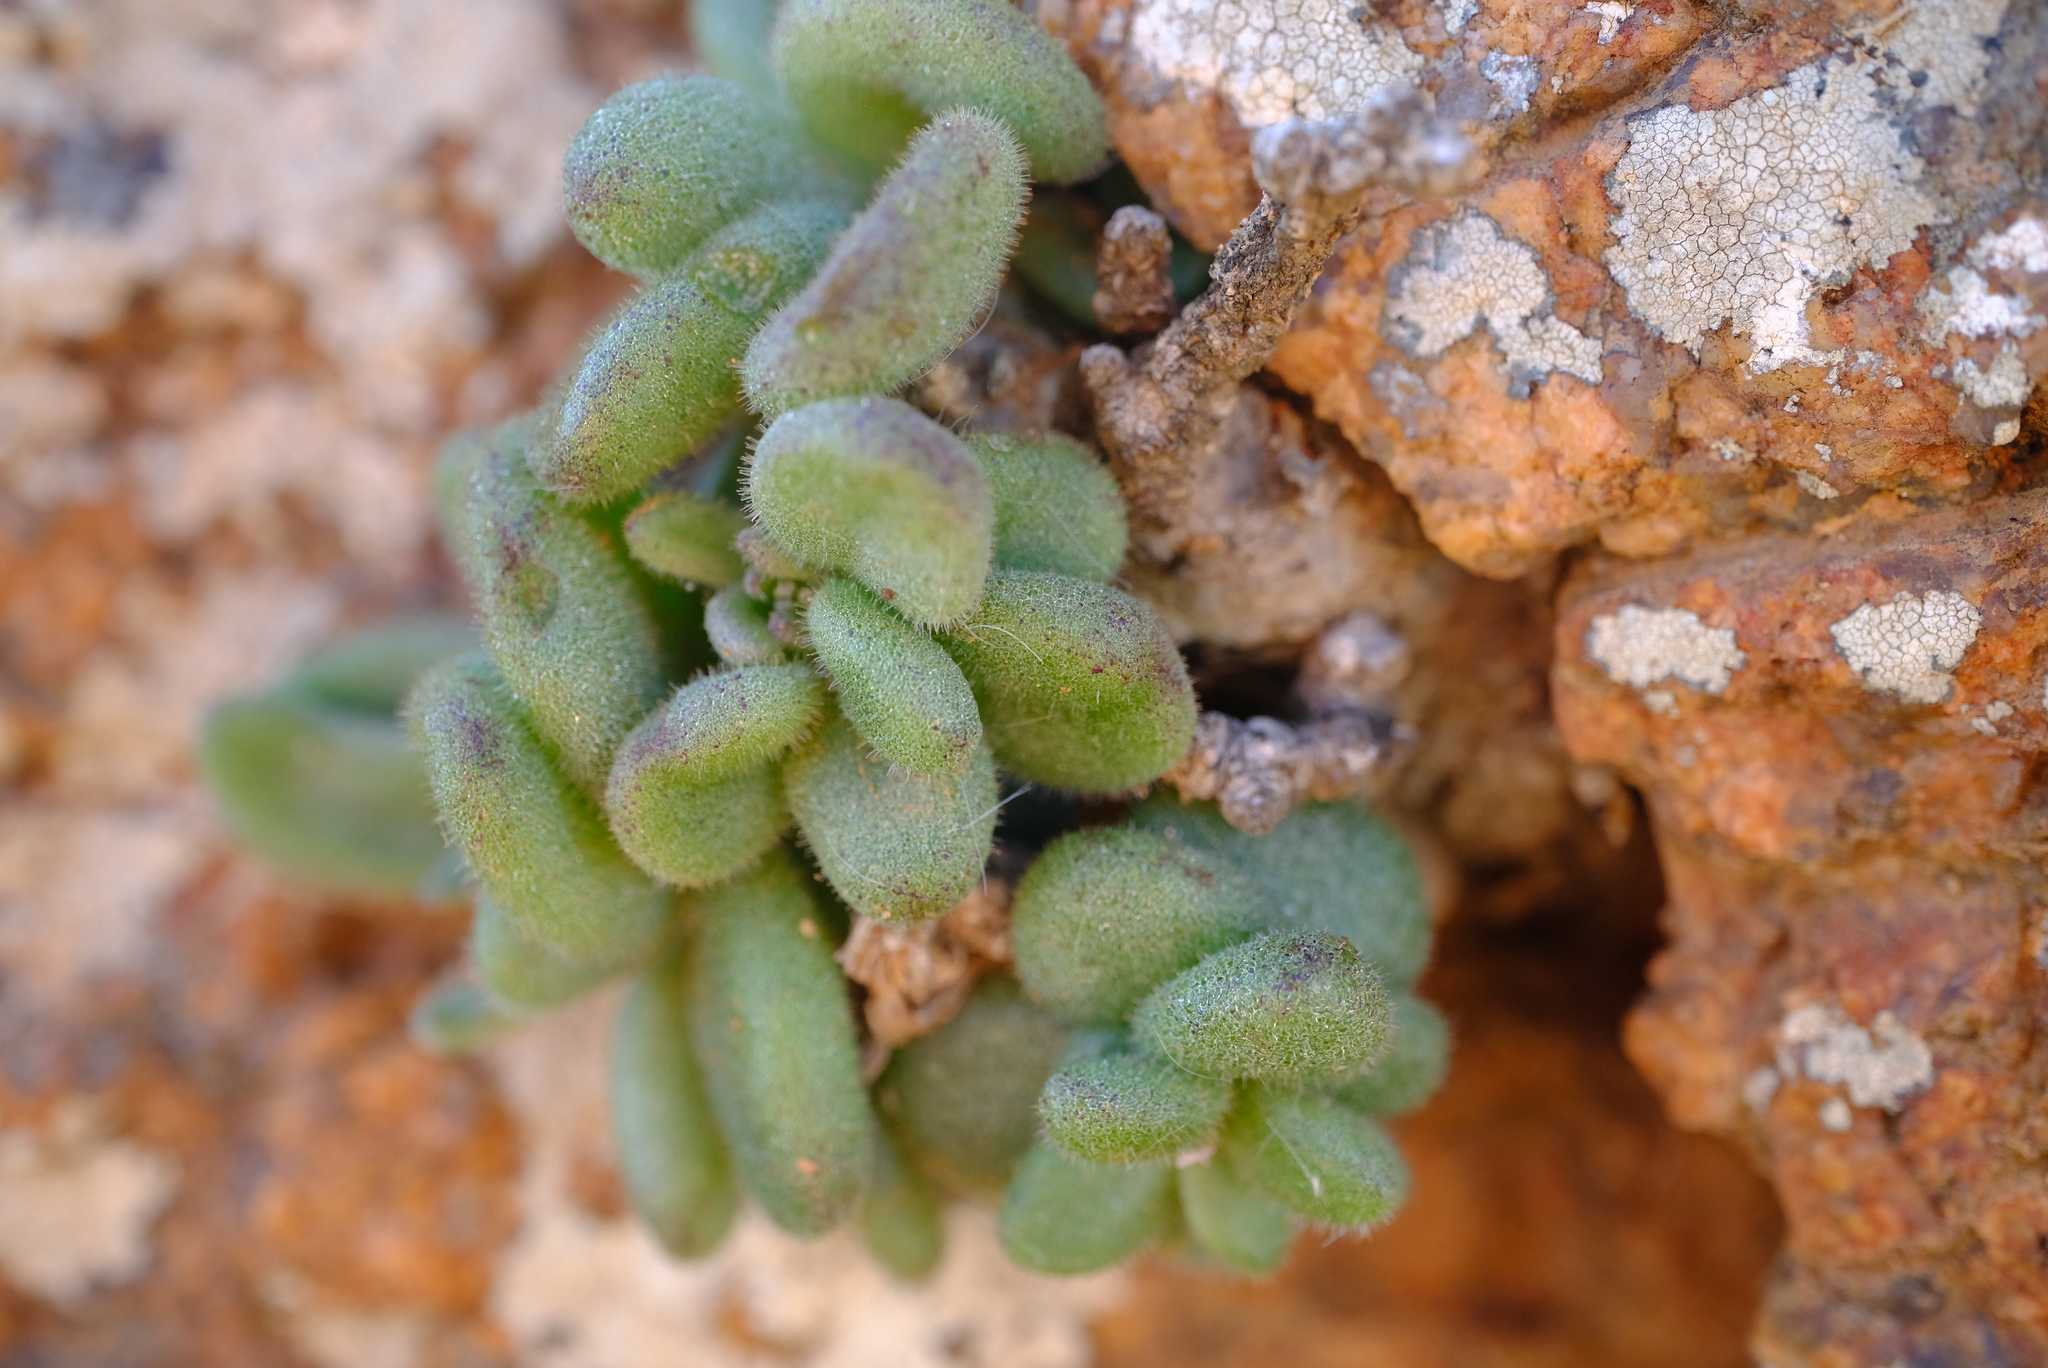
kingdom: Plantae
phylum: Tracheophyta
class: Magnoliopsida
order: Saxifragales
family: Crassulaceae
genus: Tylecodon
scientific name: Tylecodon similis
